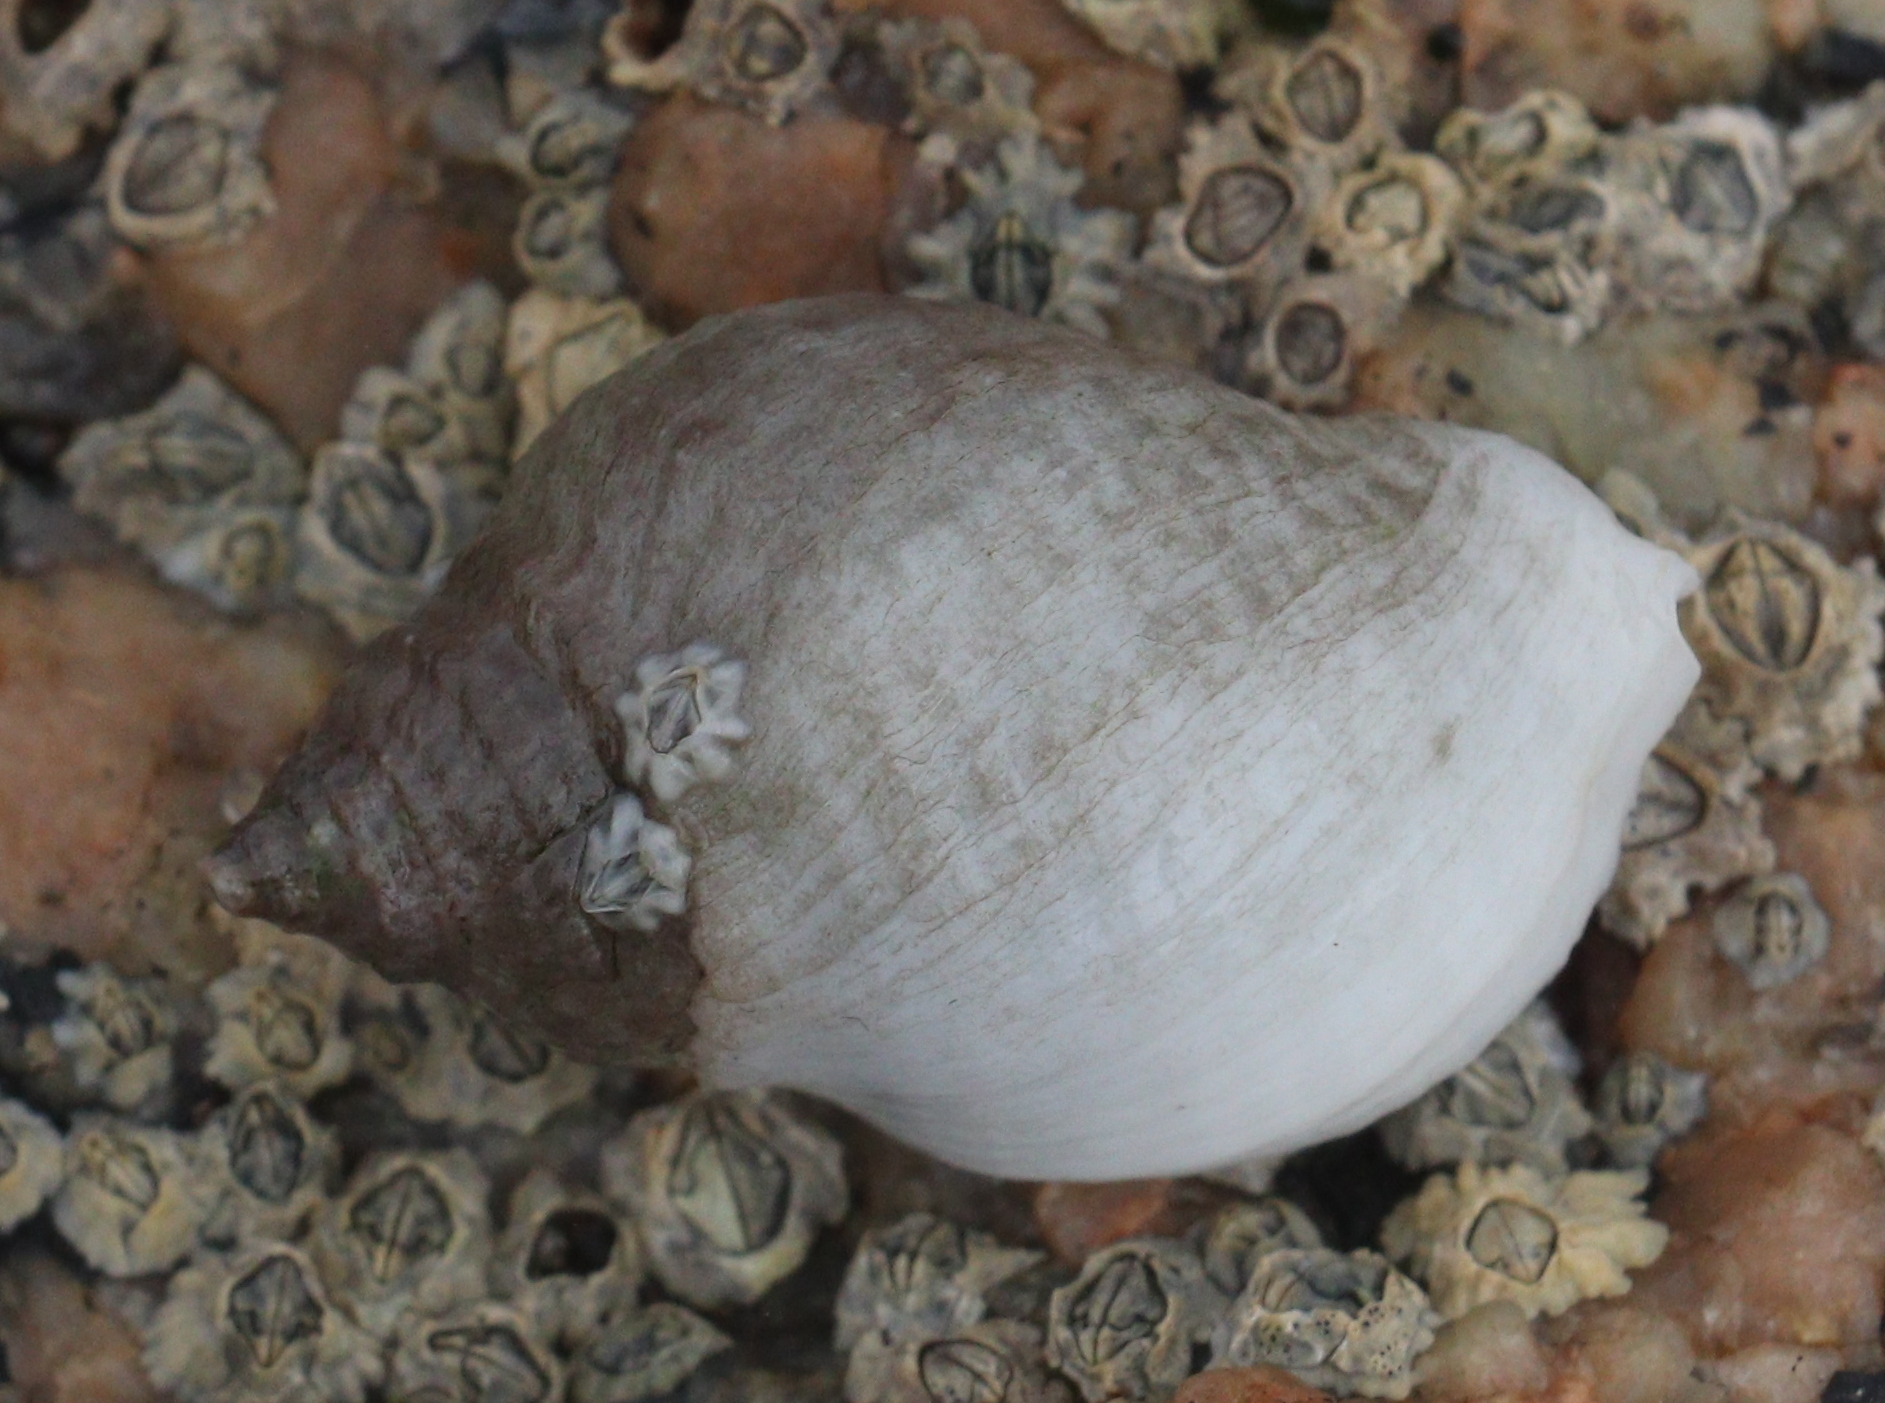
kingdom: Animalia
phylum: Mollusca
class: Gastropoda
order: Neogastropoda
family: Muricidae
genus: Nucella
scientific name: Nucella lapillus
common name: Dog whelk
